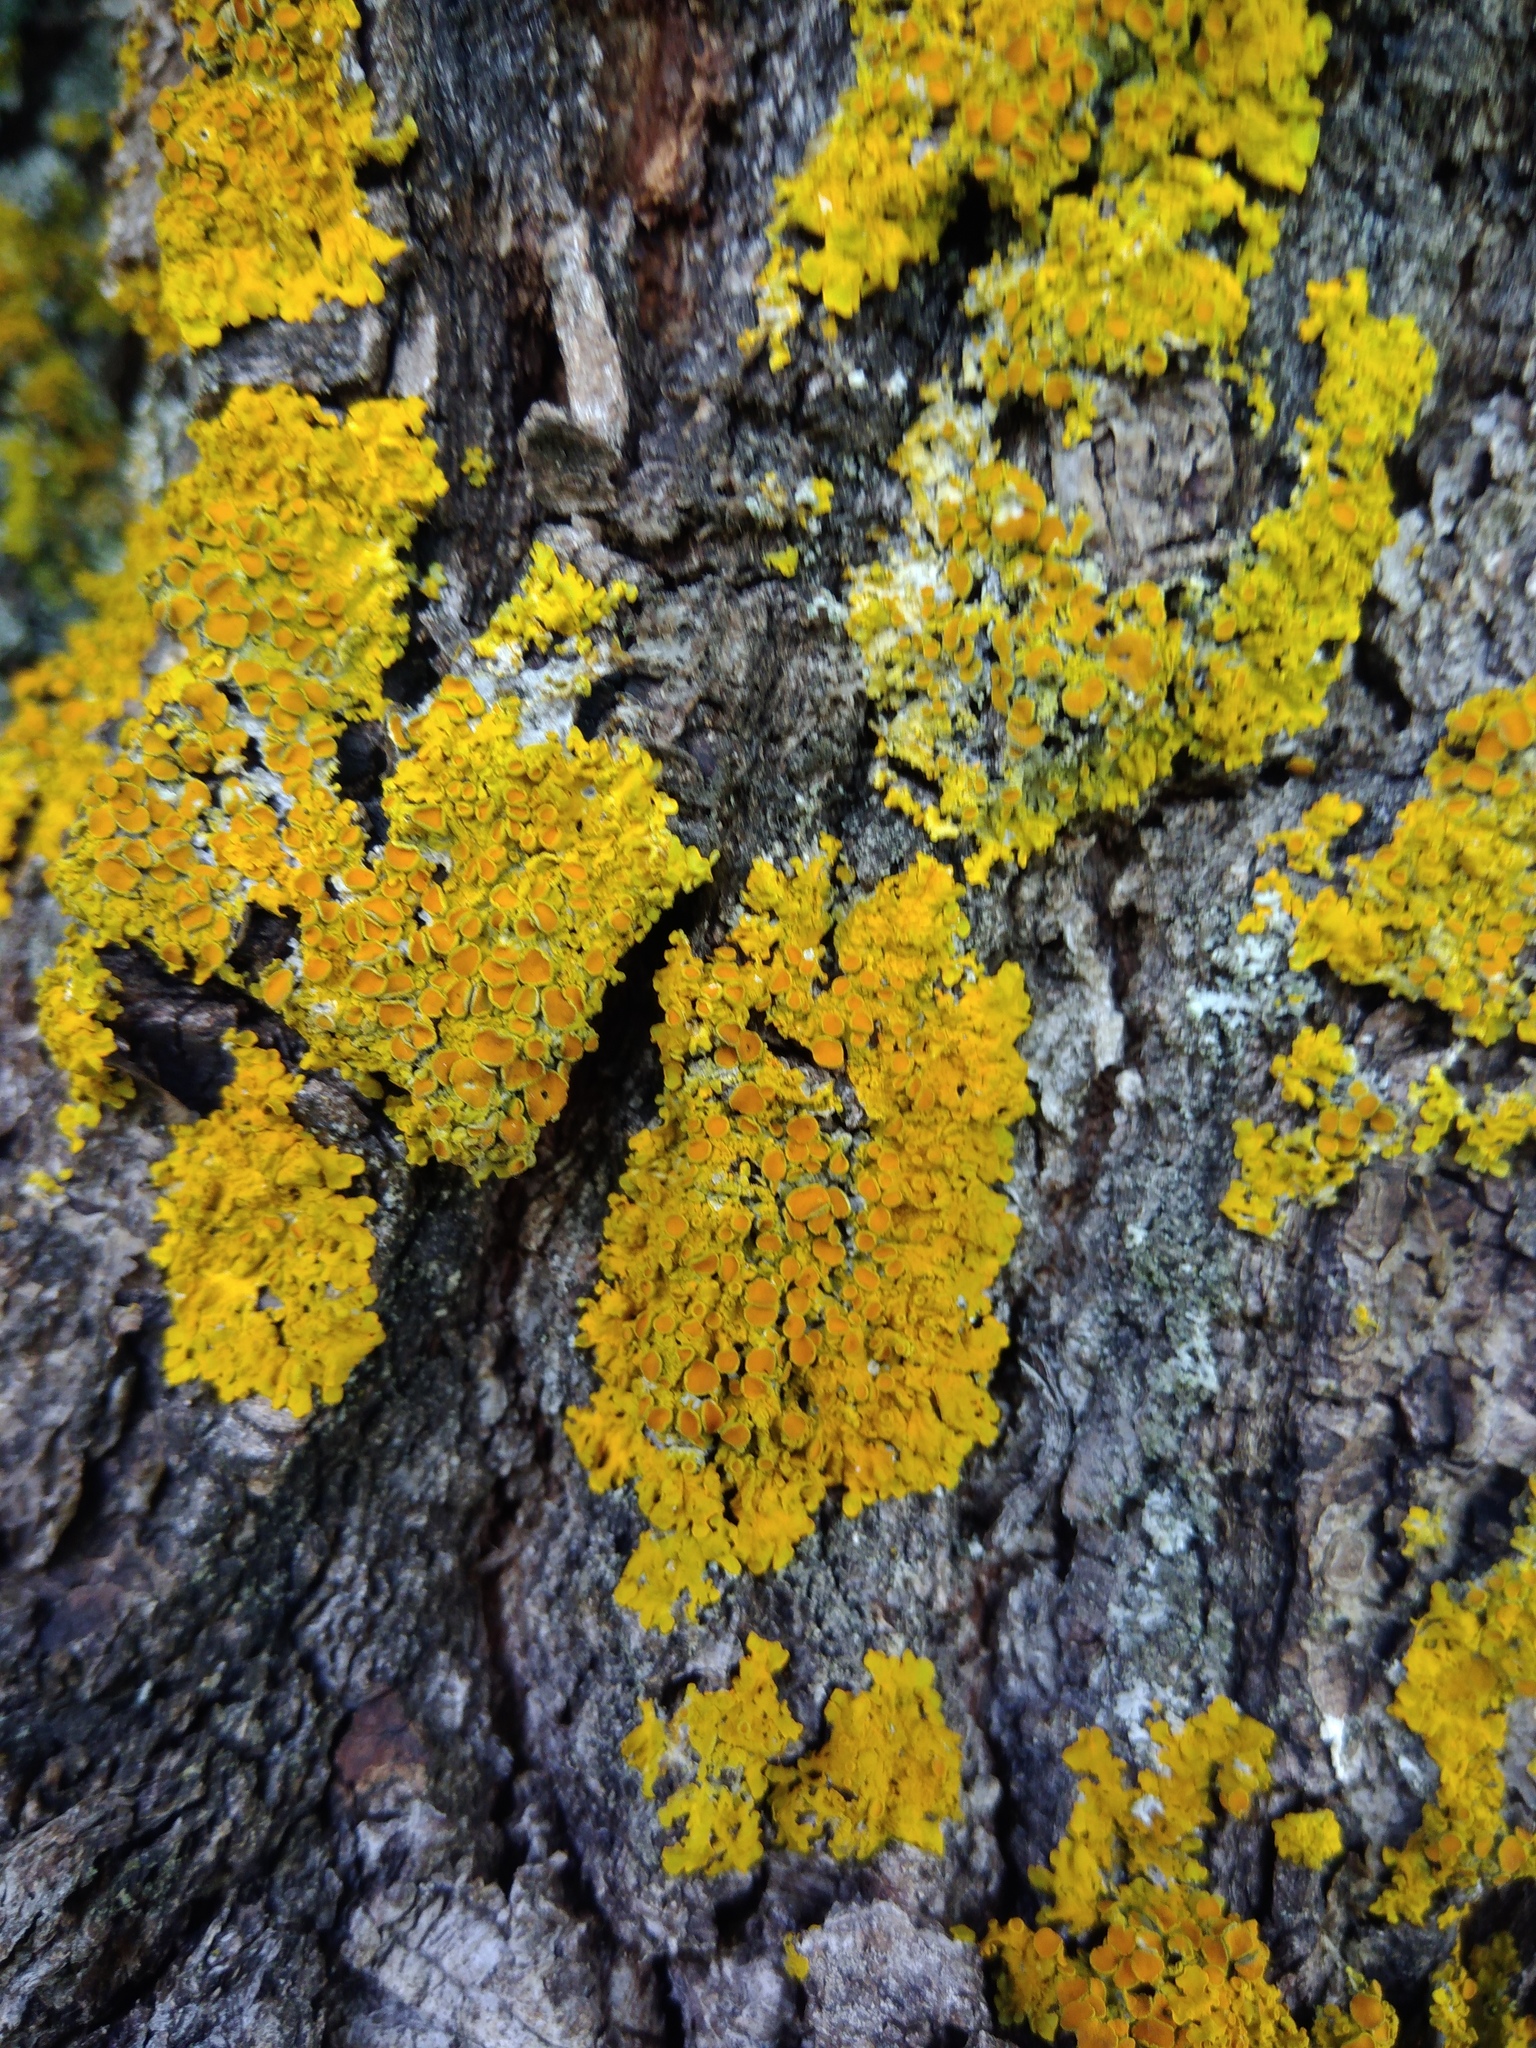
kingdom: Fungi
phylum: Ascomycota
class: Lecanoromycetes
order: Teloschistales
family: Teloschistaceae
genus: Xanthoria
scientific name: Xanthoria parietina
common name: Common orange lichen
